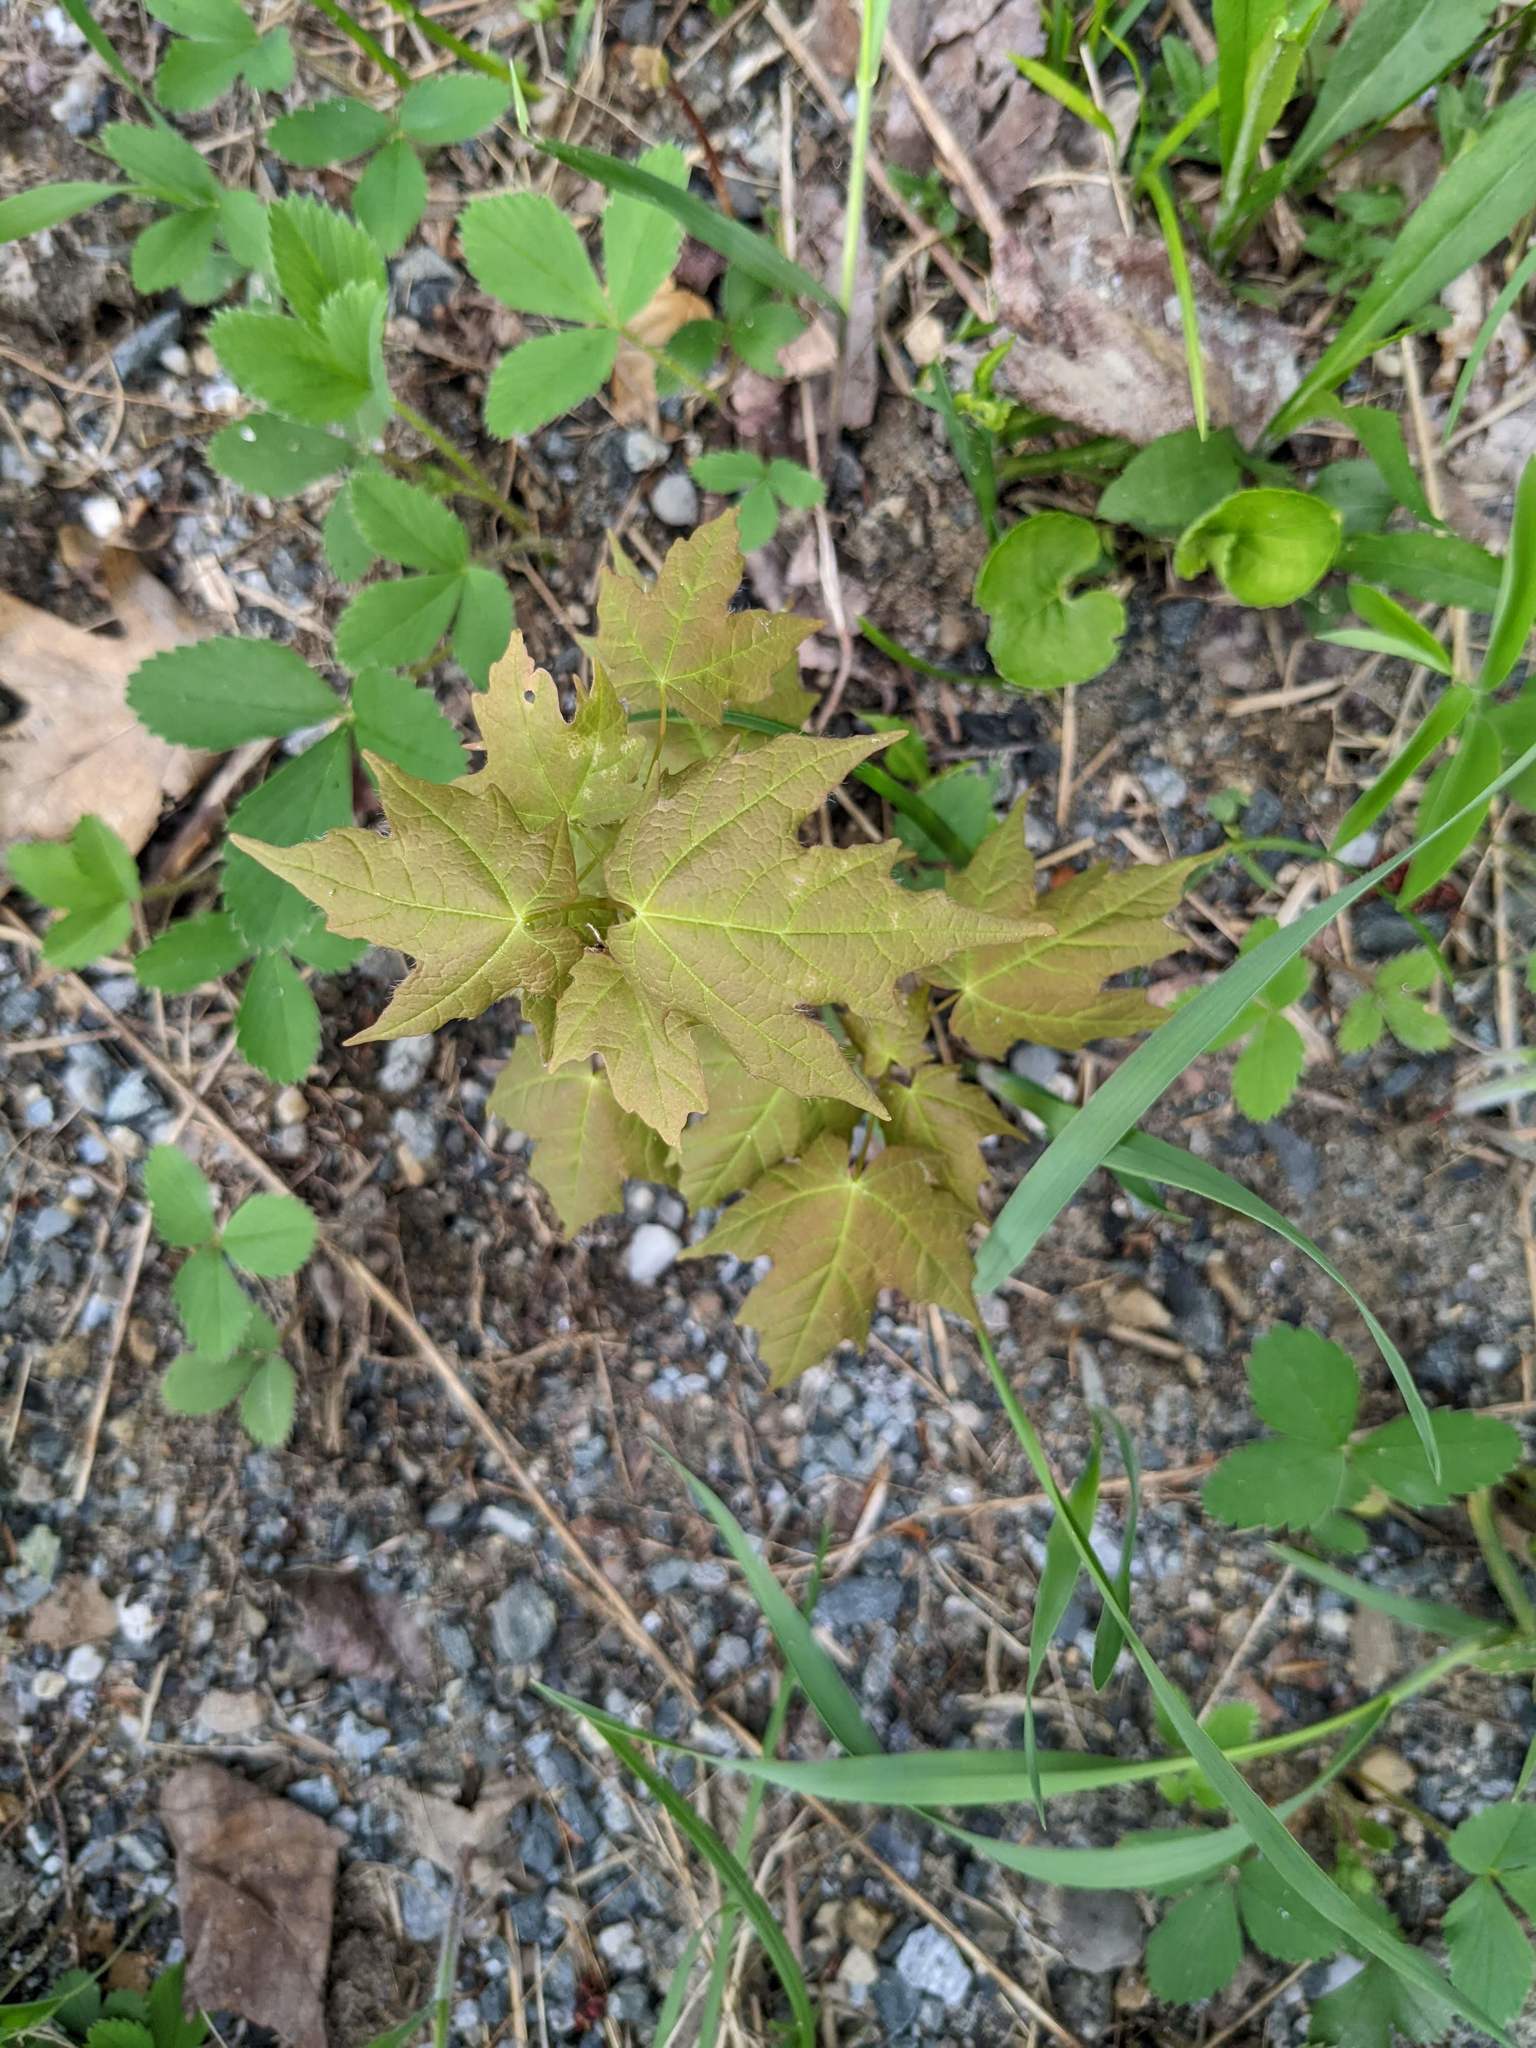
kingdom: Plantae
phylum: Tracheophyta
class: Magnoliopsida
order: Sapindales
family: Sapindaceae
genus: Acer
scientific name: Acer saccharum
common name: Sugar maple
